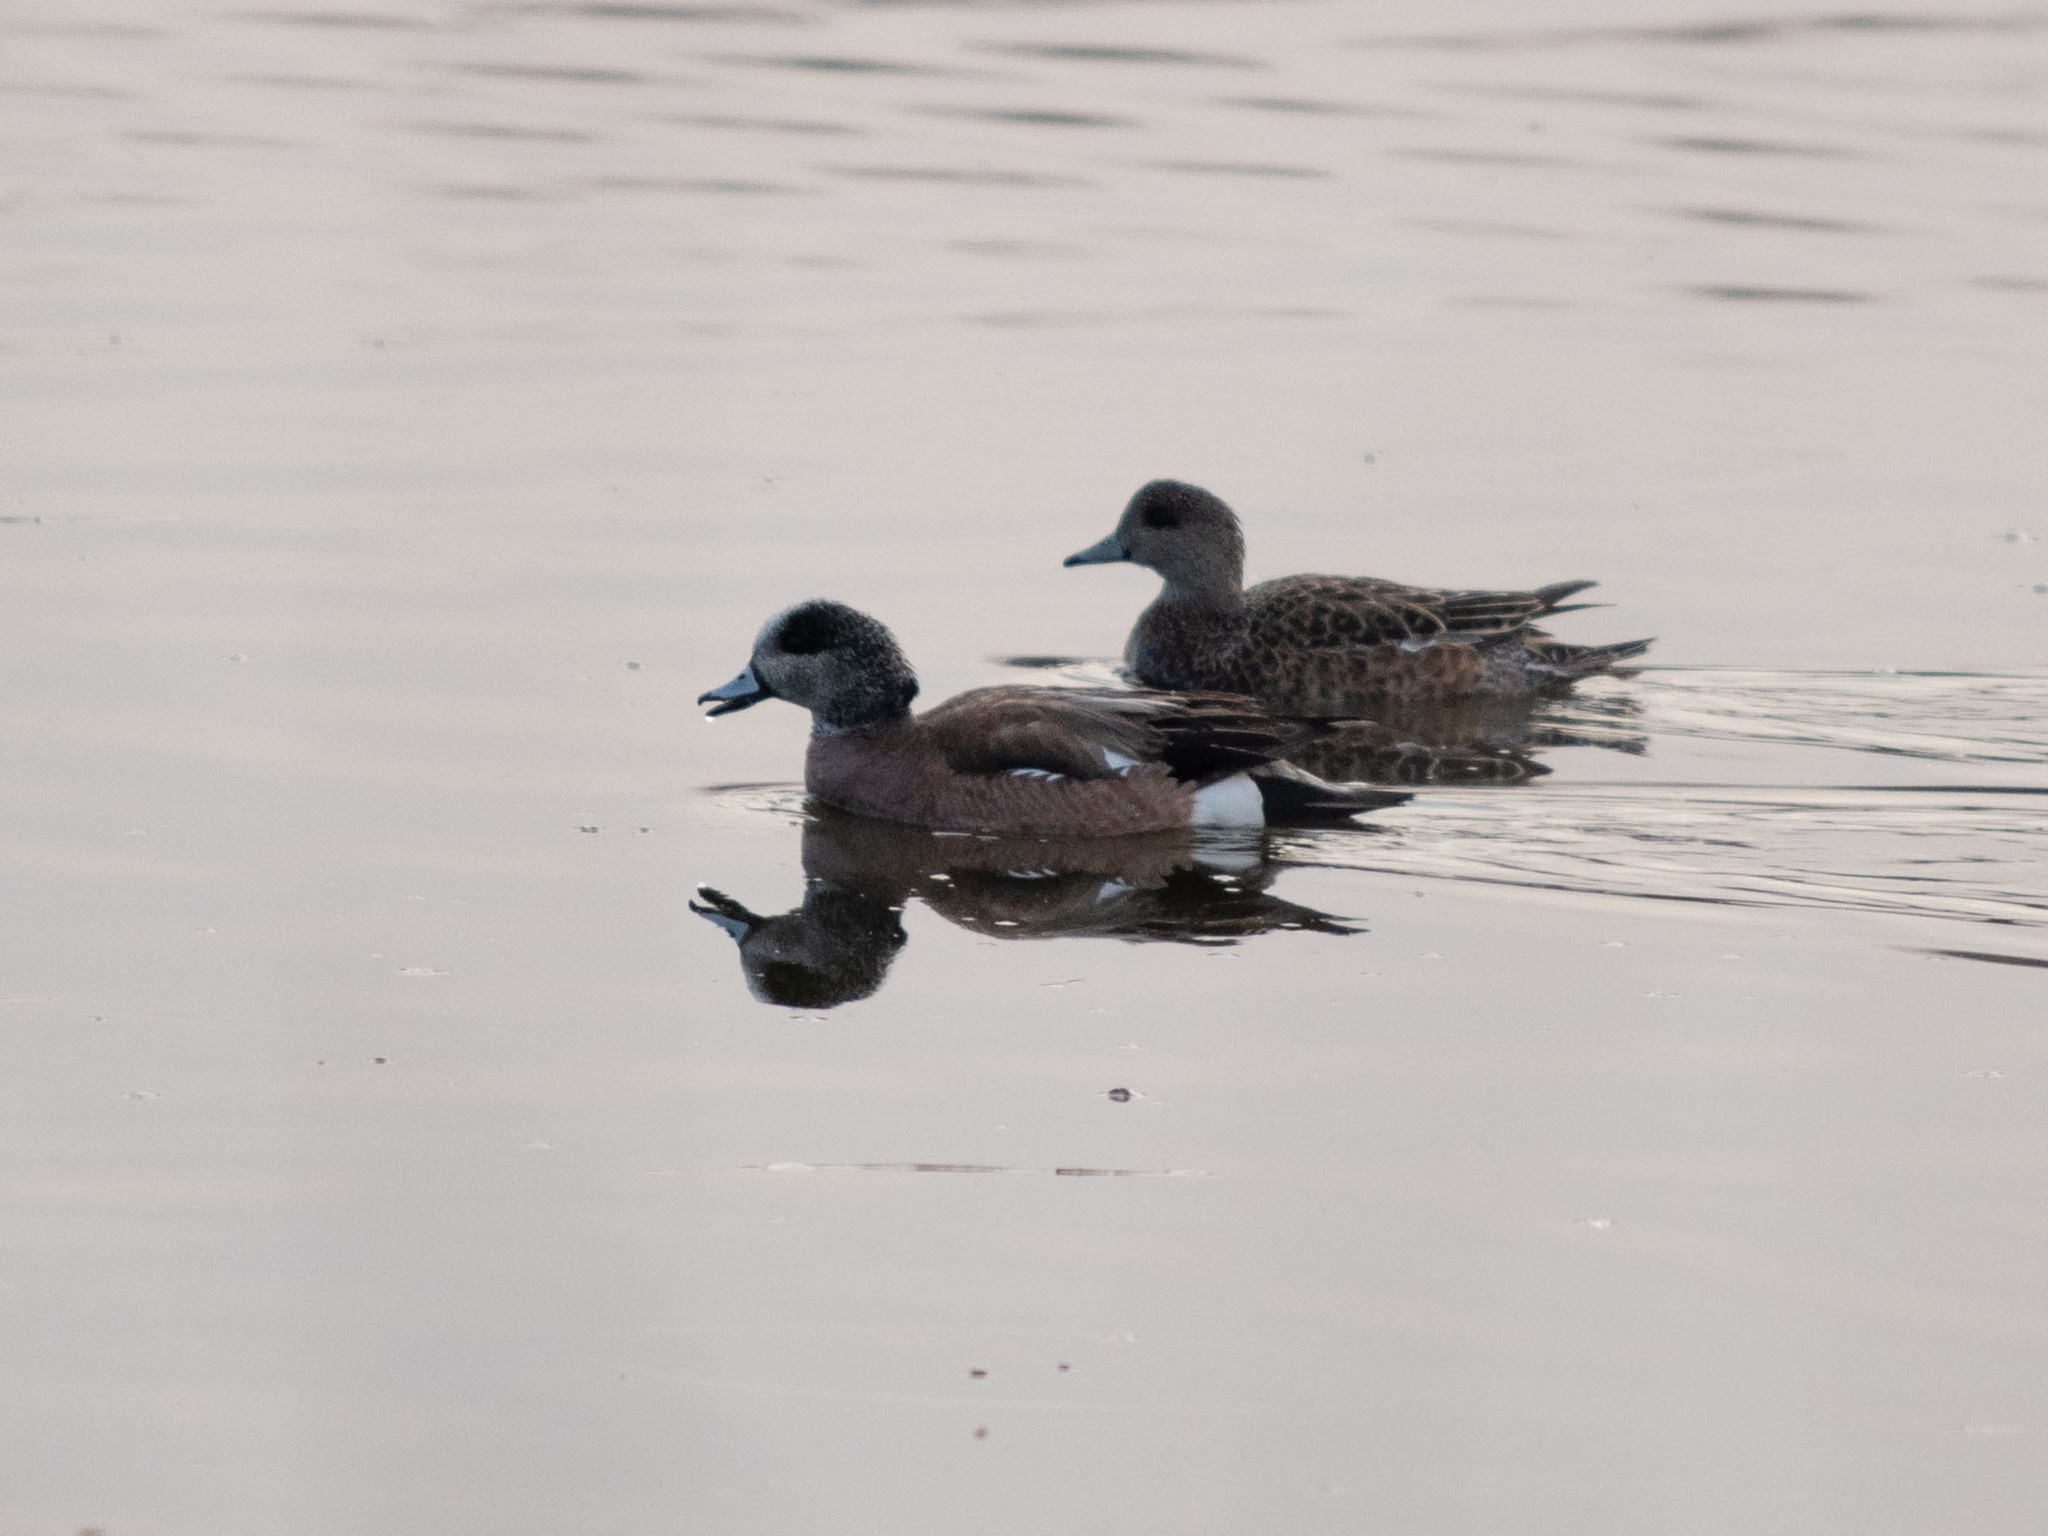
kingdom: Animalia
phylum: Chordata
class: Aves
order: Anseriformes
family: Anatidae
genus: Mareca
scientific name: Mareca americana
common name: American wigeon
